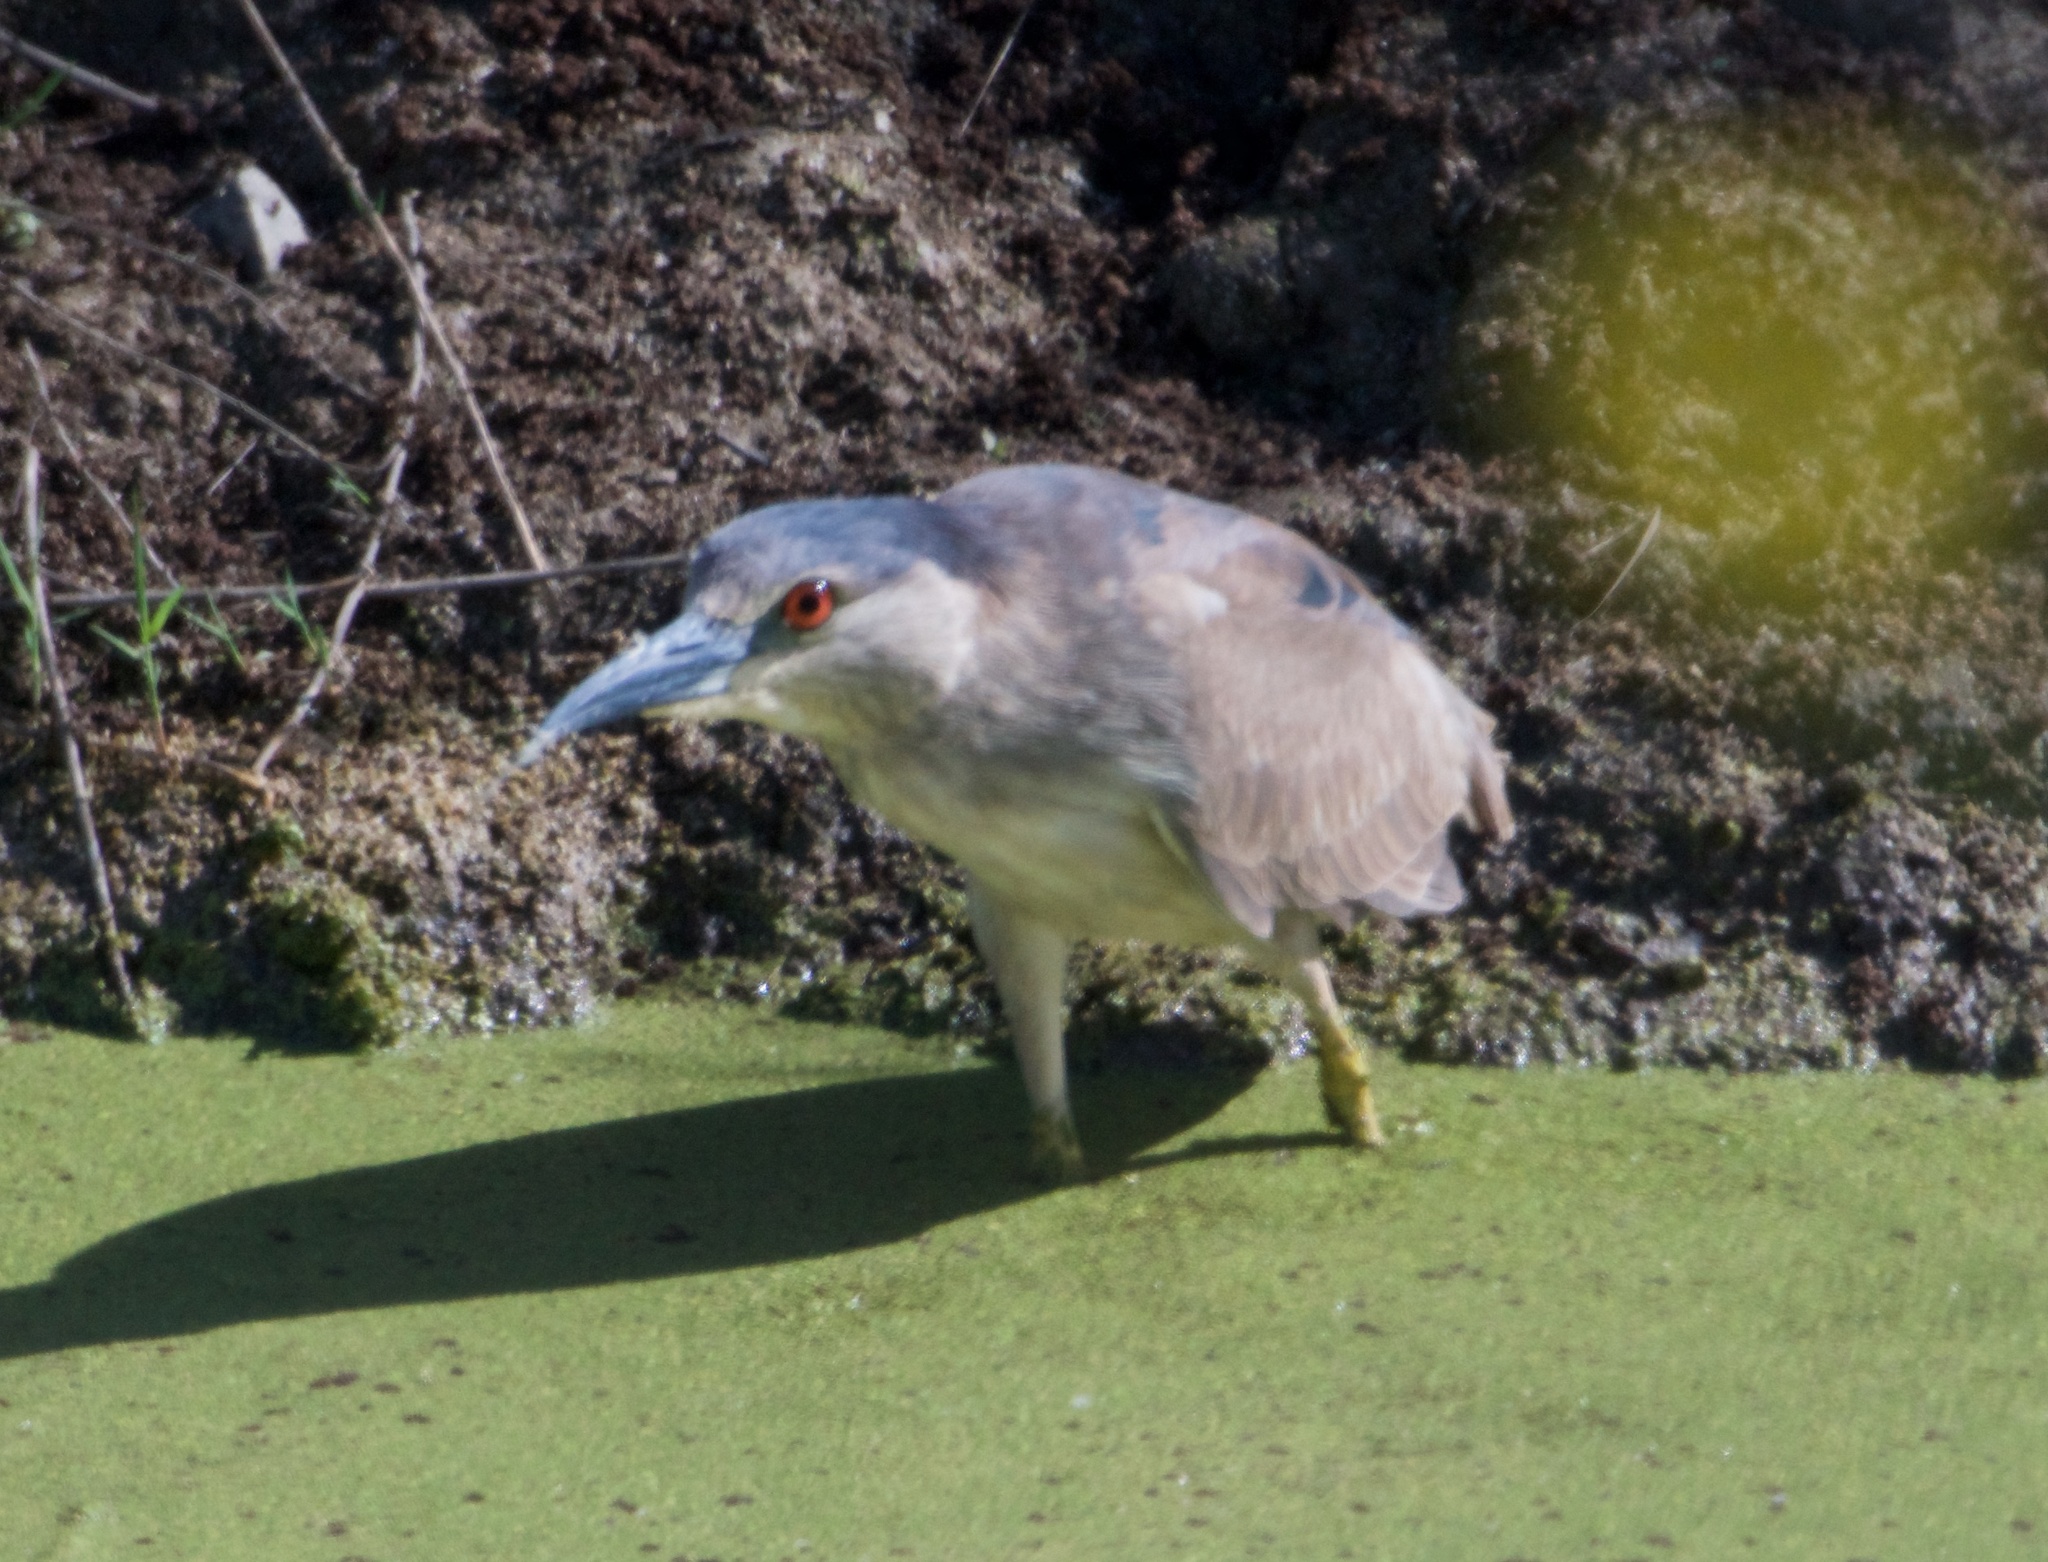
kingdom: Animalia
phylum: Chordata
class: Aves
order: Pelecaniformes
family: Ardeidae
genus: Nycticorax
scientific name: Nycticorax nycticorax
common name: Black-crowned night heron
